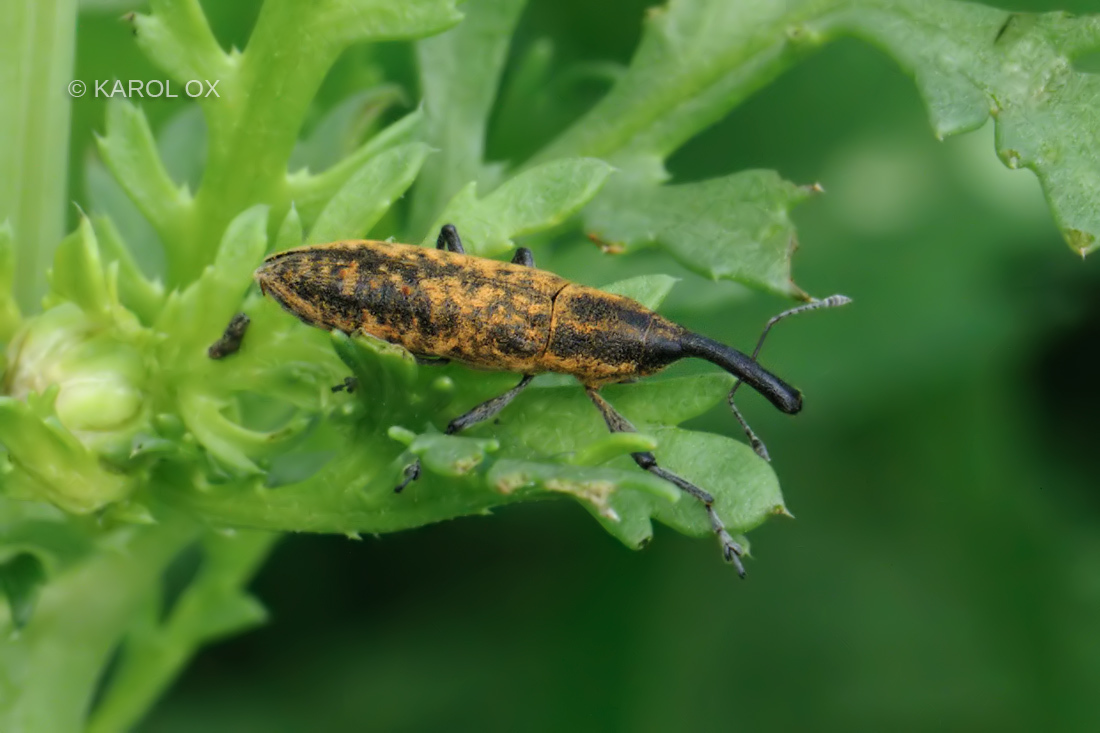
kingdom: Animalia
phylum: Arthropoda
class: Insecta
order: Coleoptera
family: Curculionidae
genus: Lixus
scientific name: Lixus fasciculatus
